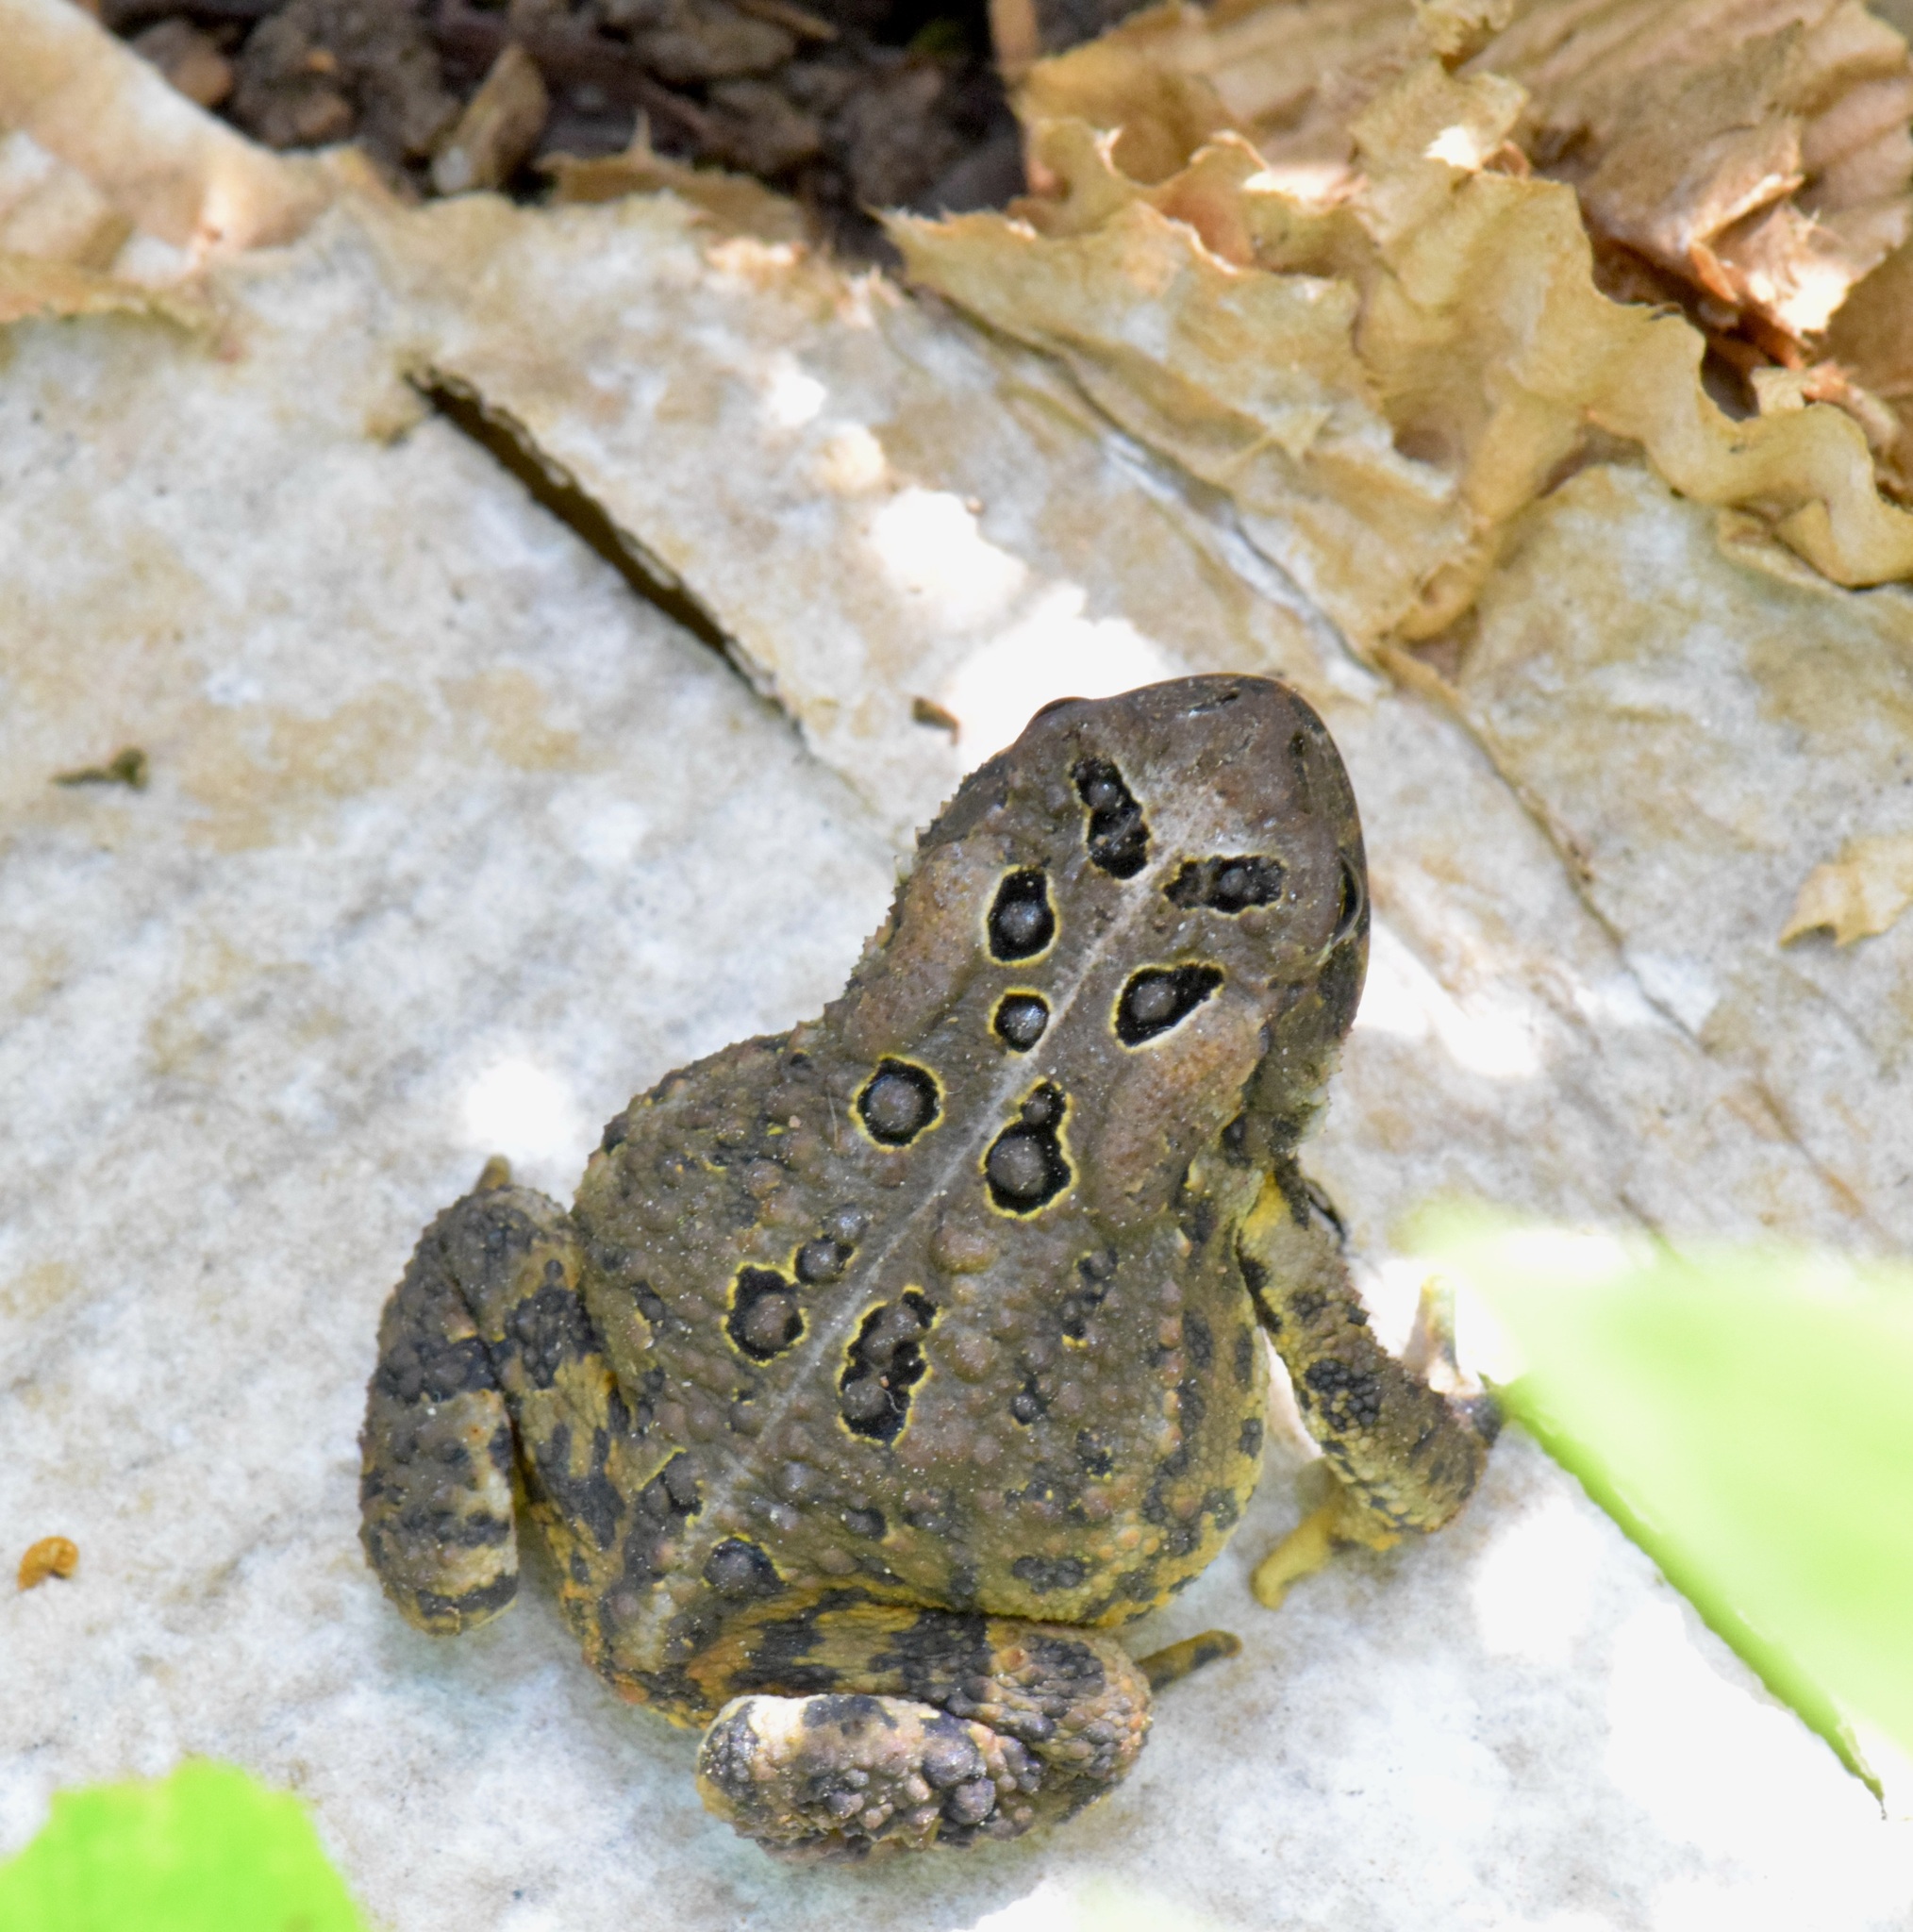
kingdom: Animalia
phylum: Chordata
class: Amphibia
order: Anura
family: Bufonidae
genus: Anaxyrus
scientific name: Anaxyrus americanus
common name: American toad
